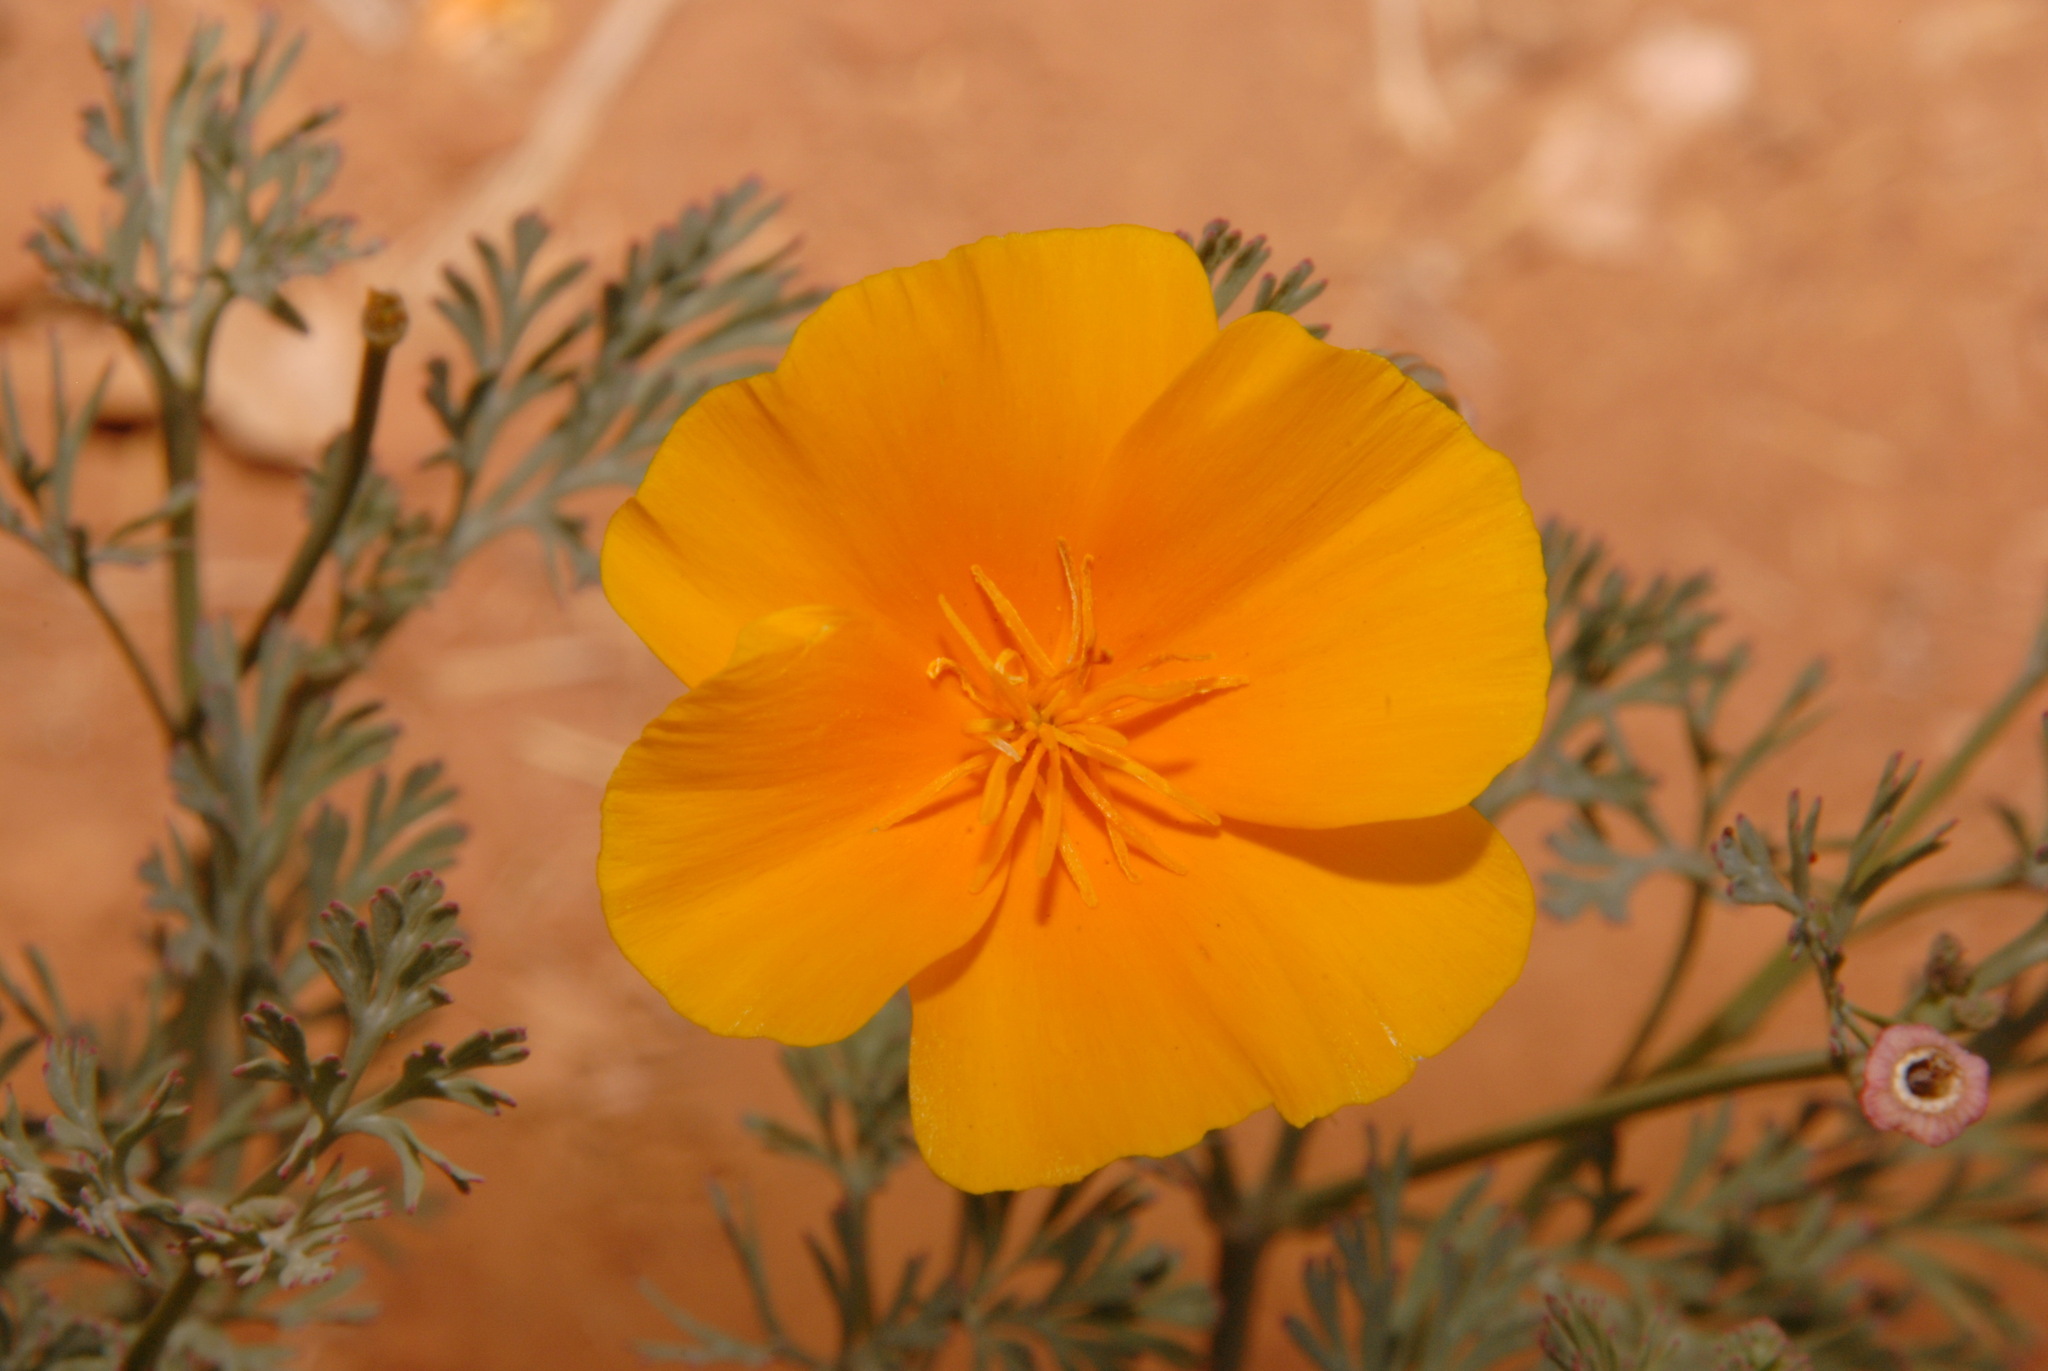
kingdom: Plantae
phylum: Tracheophyta
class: Magnoliopsida
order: Ranunculales
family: Papaveraceae
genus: Eschscholzia
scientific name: Eschscholzia californica
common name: California poppy
